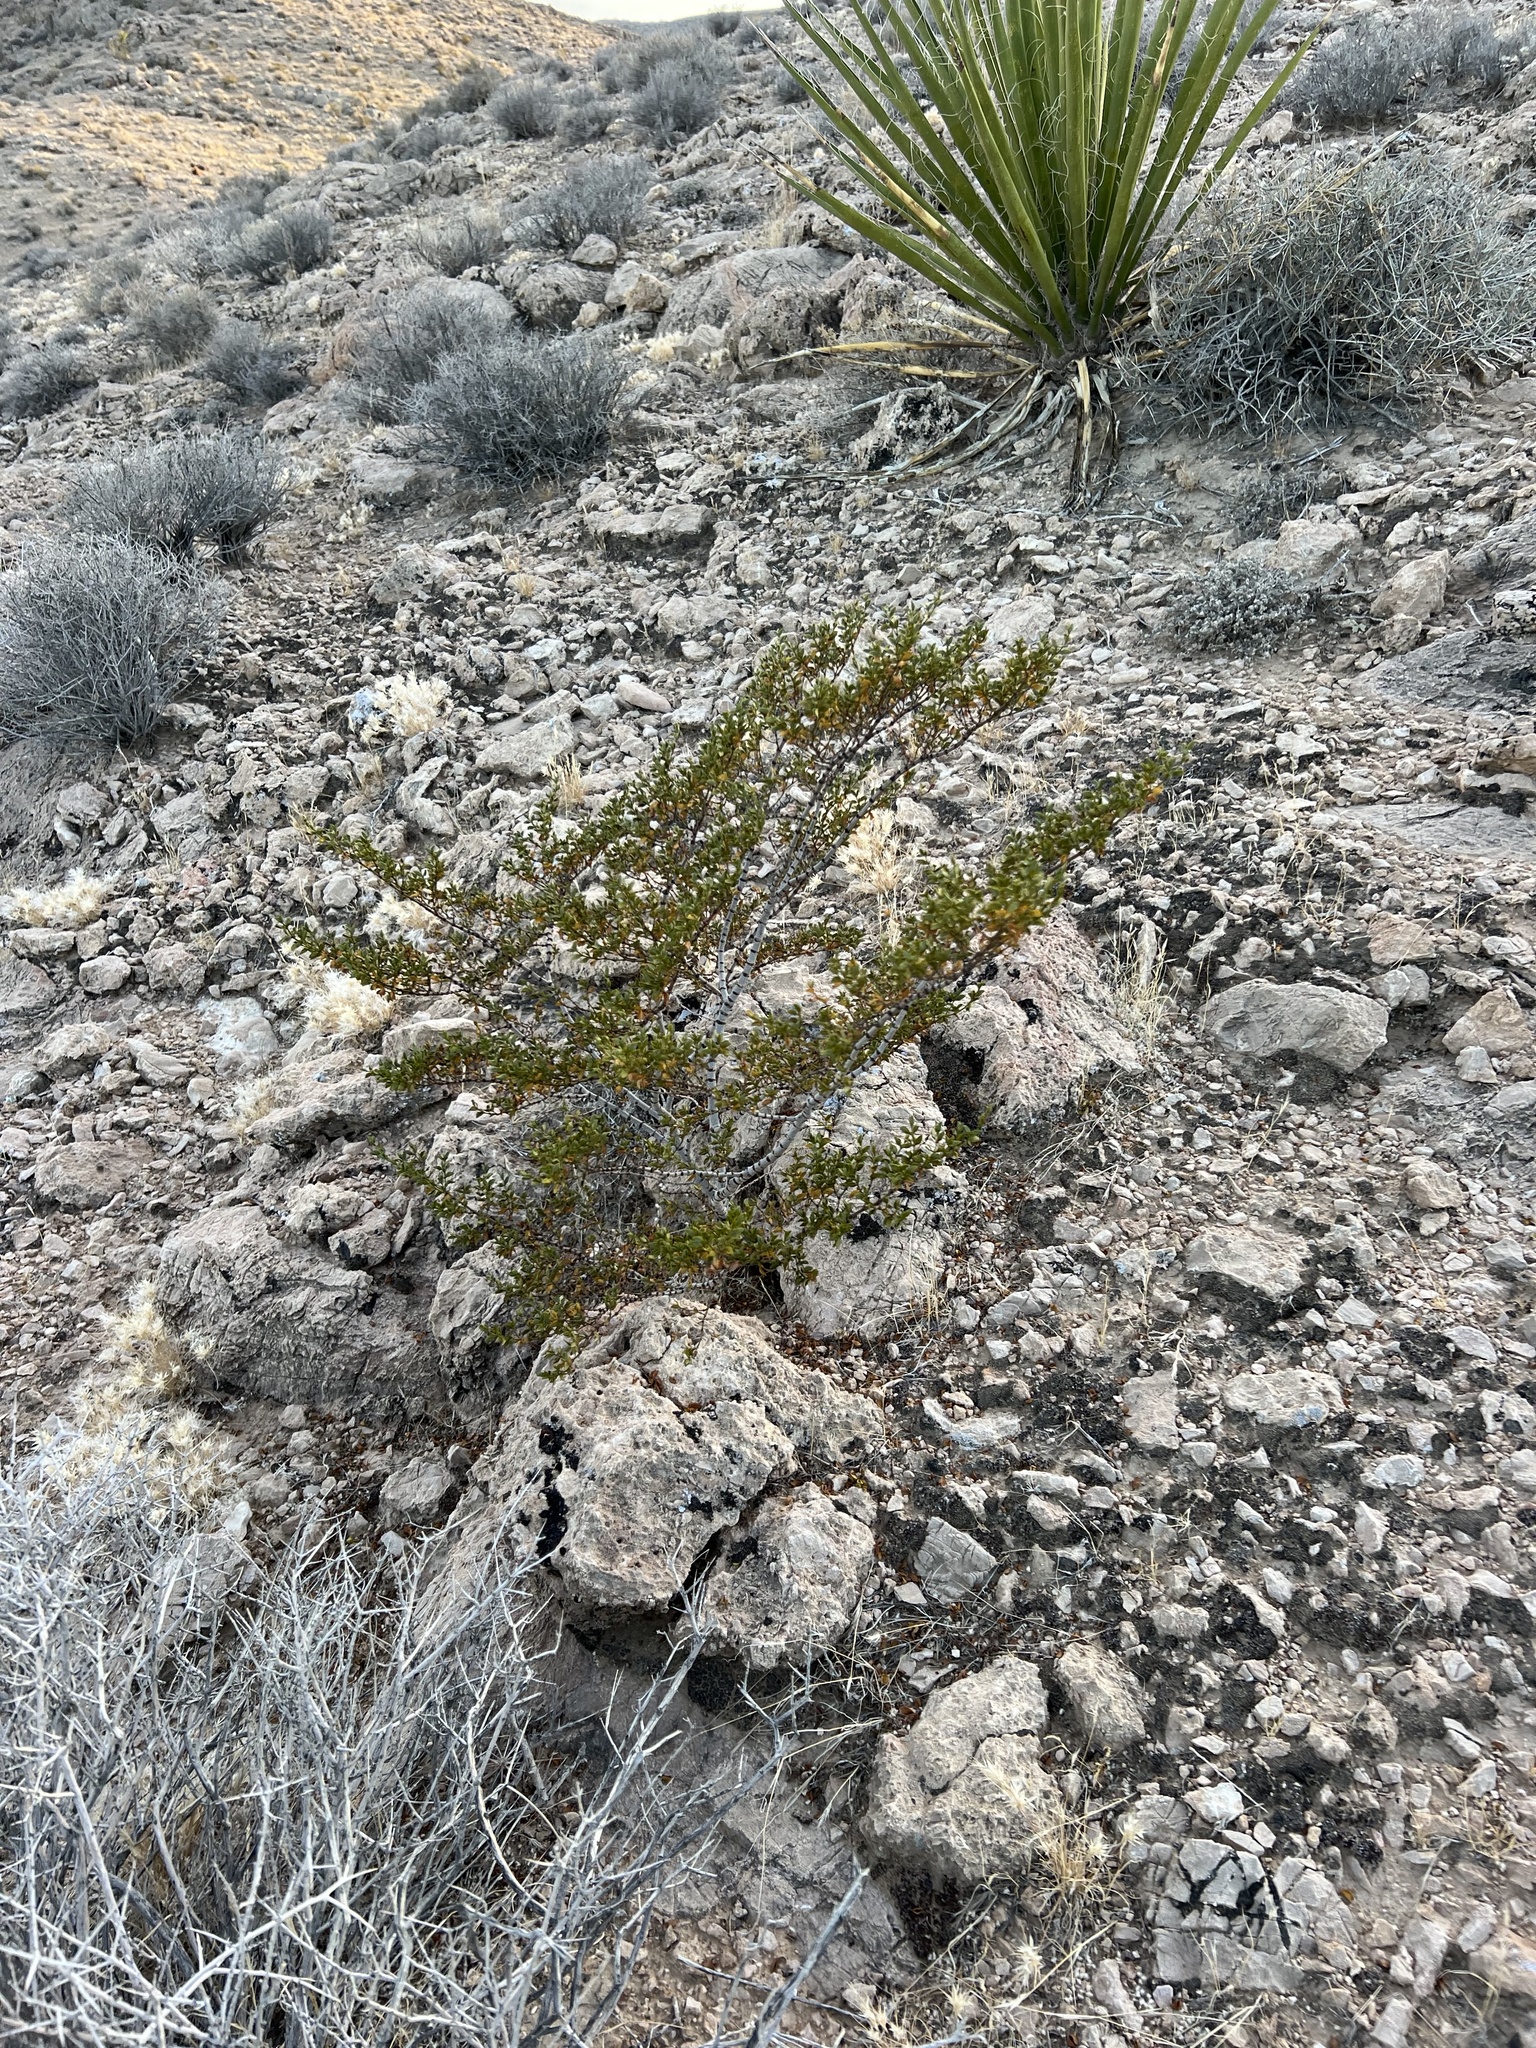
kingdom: Plantae
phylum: Tracheophyta
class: Magnoliopsida
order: Zygophyllales
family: Zygophyllaceae
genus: Larrea
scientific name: Larrea tridentata
